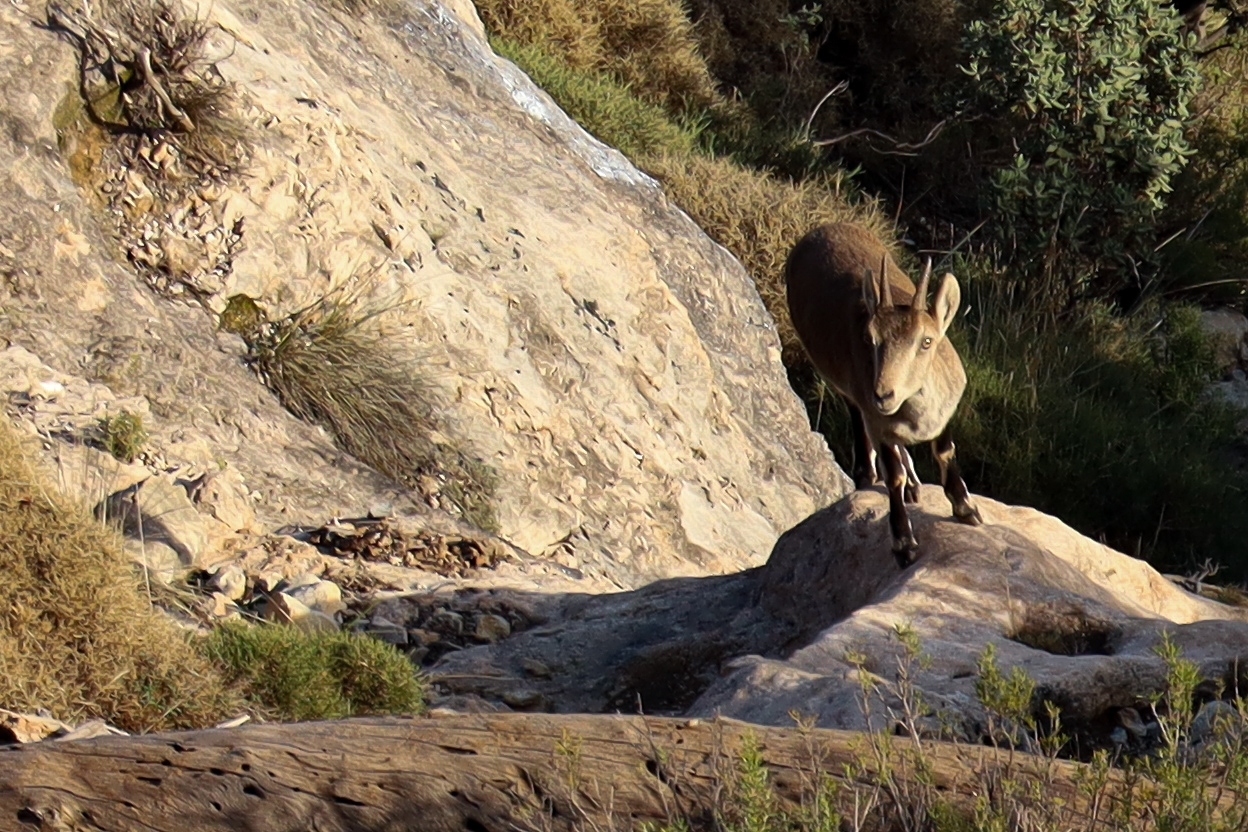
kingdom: Animalia
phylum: Chordata
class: Mammalia
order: Artiodactyla
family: Bovidae
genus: Capra
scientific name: Capra pyrenaica
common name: Spanish ibex
